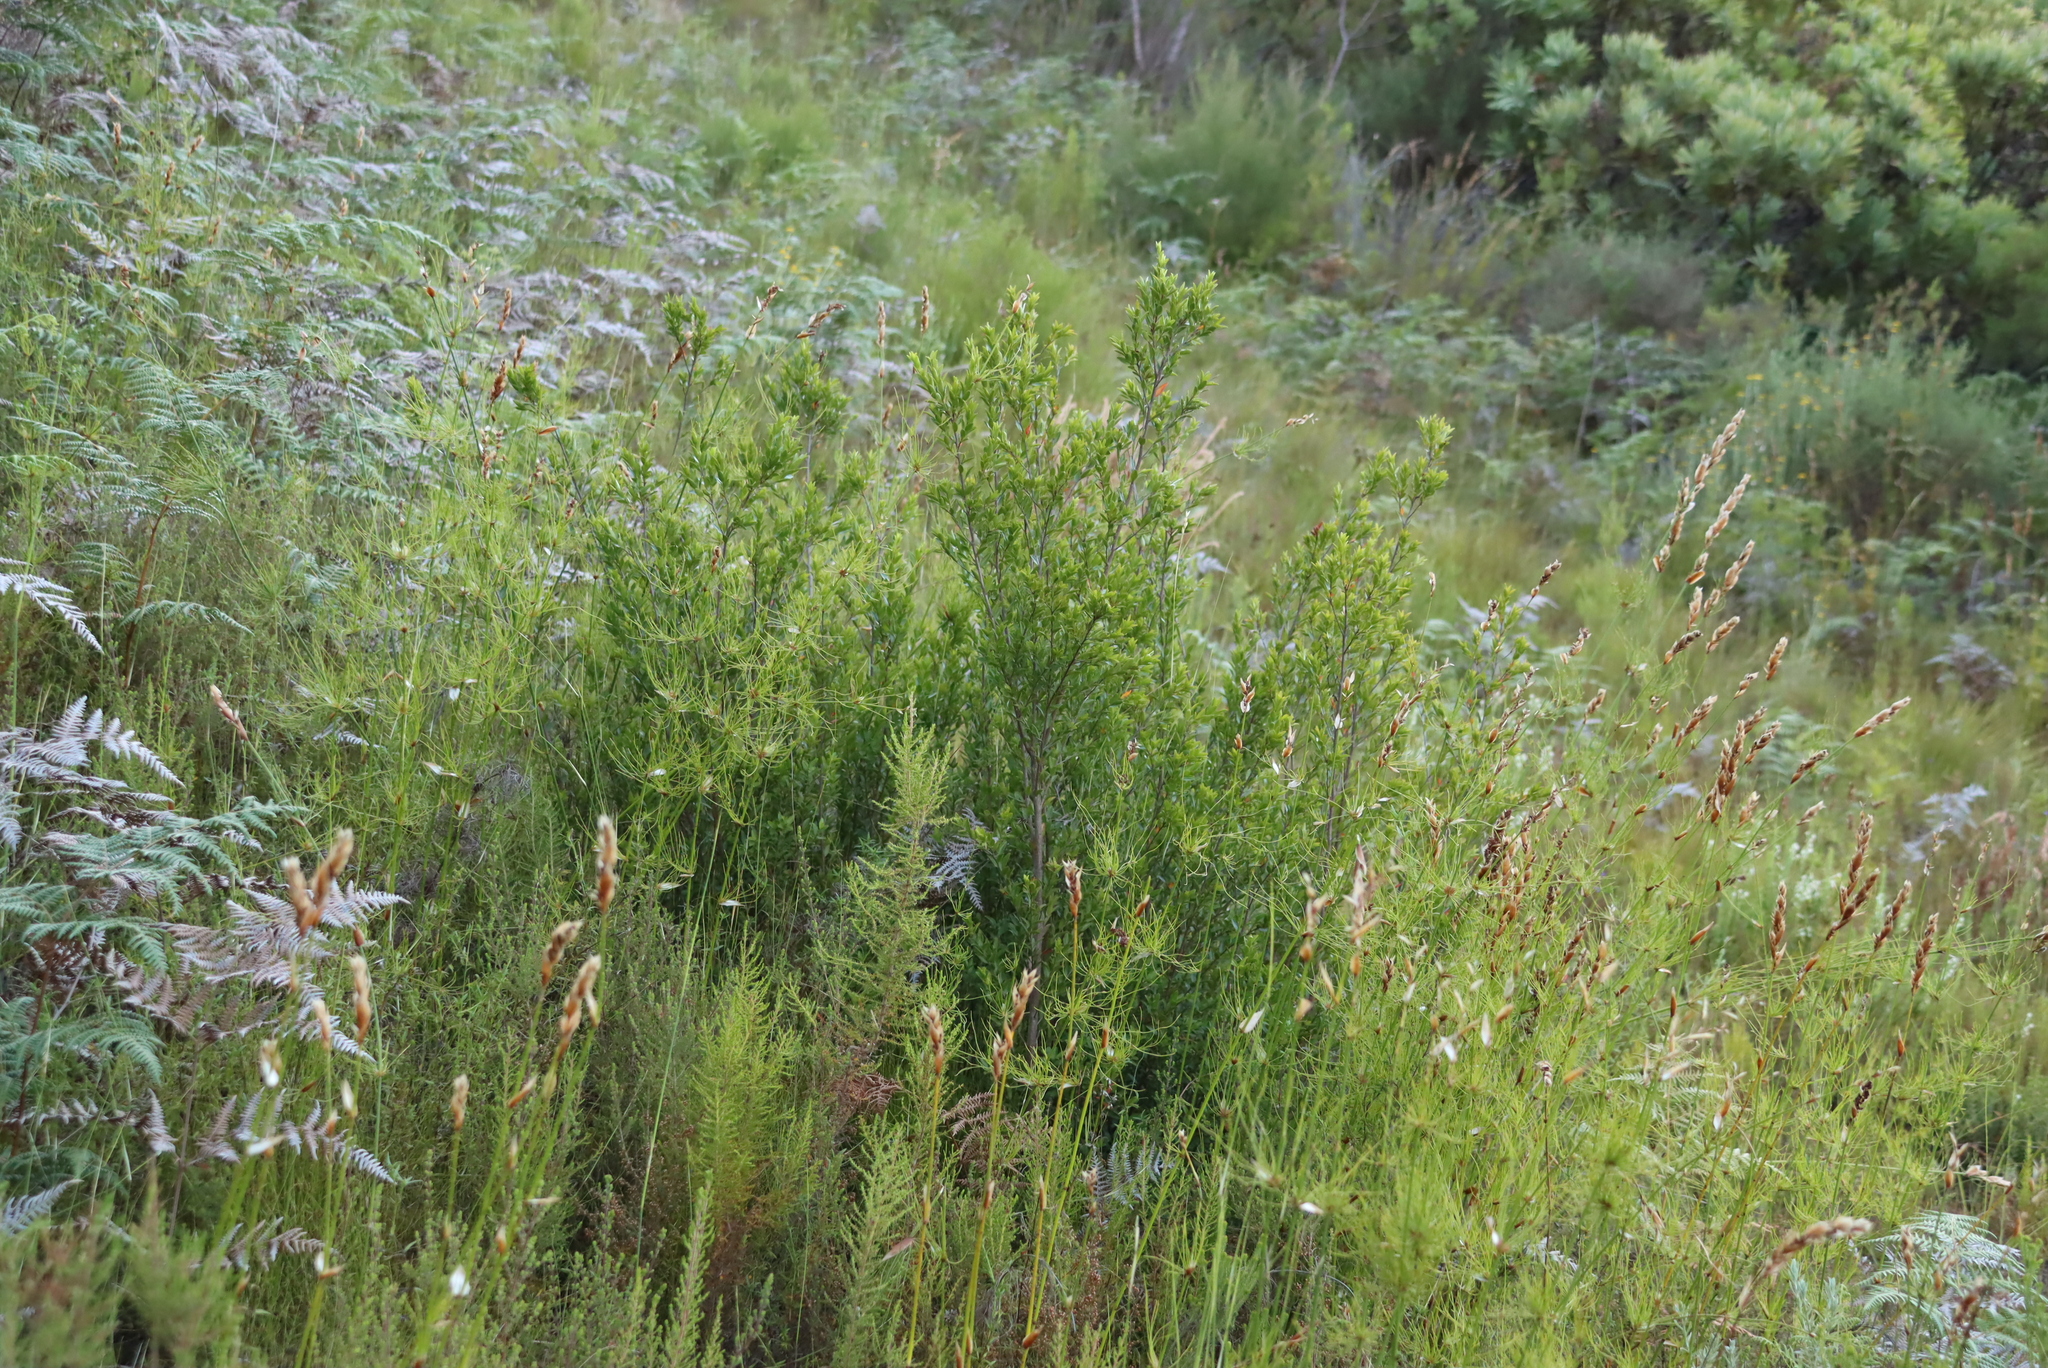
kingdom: Plantae
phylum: Tracheophyta
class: Pinopsida
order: Pinales
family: Cupressaceae
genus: Widdringtonia
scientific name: Widdringtonia nodiflora
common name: Cape cypress
